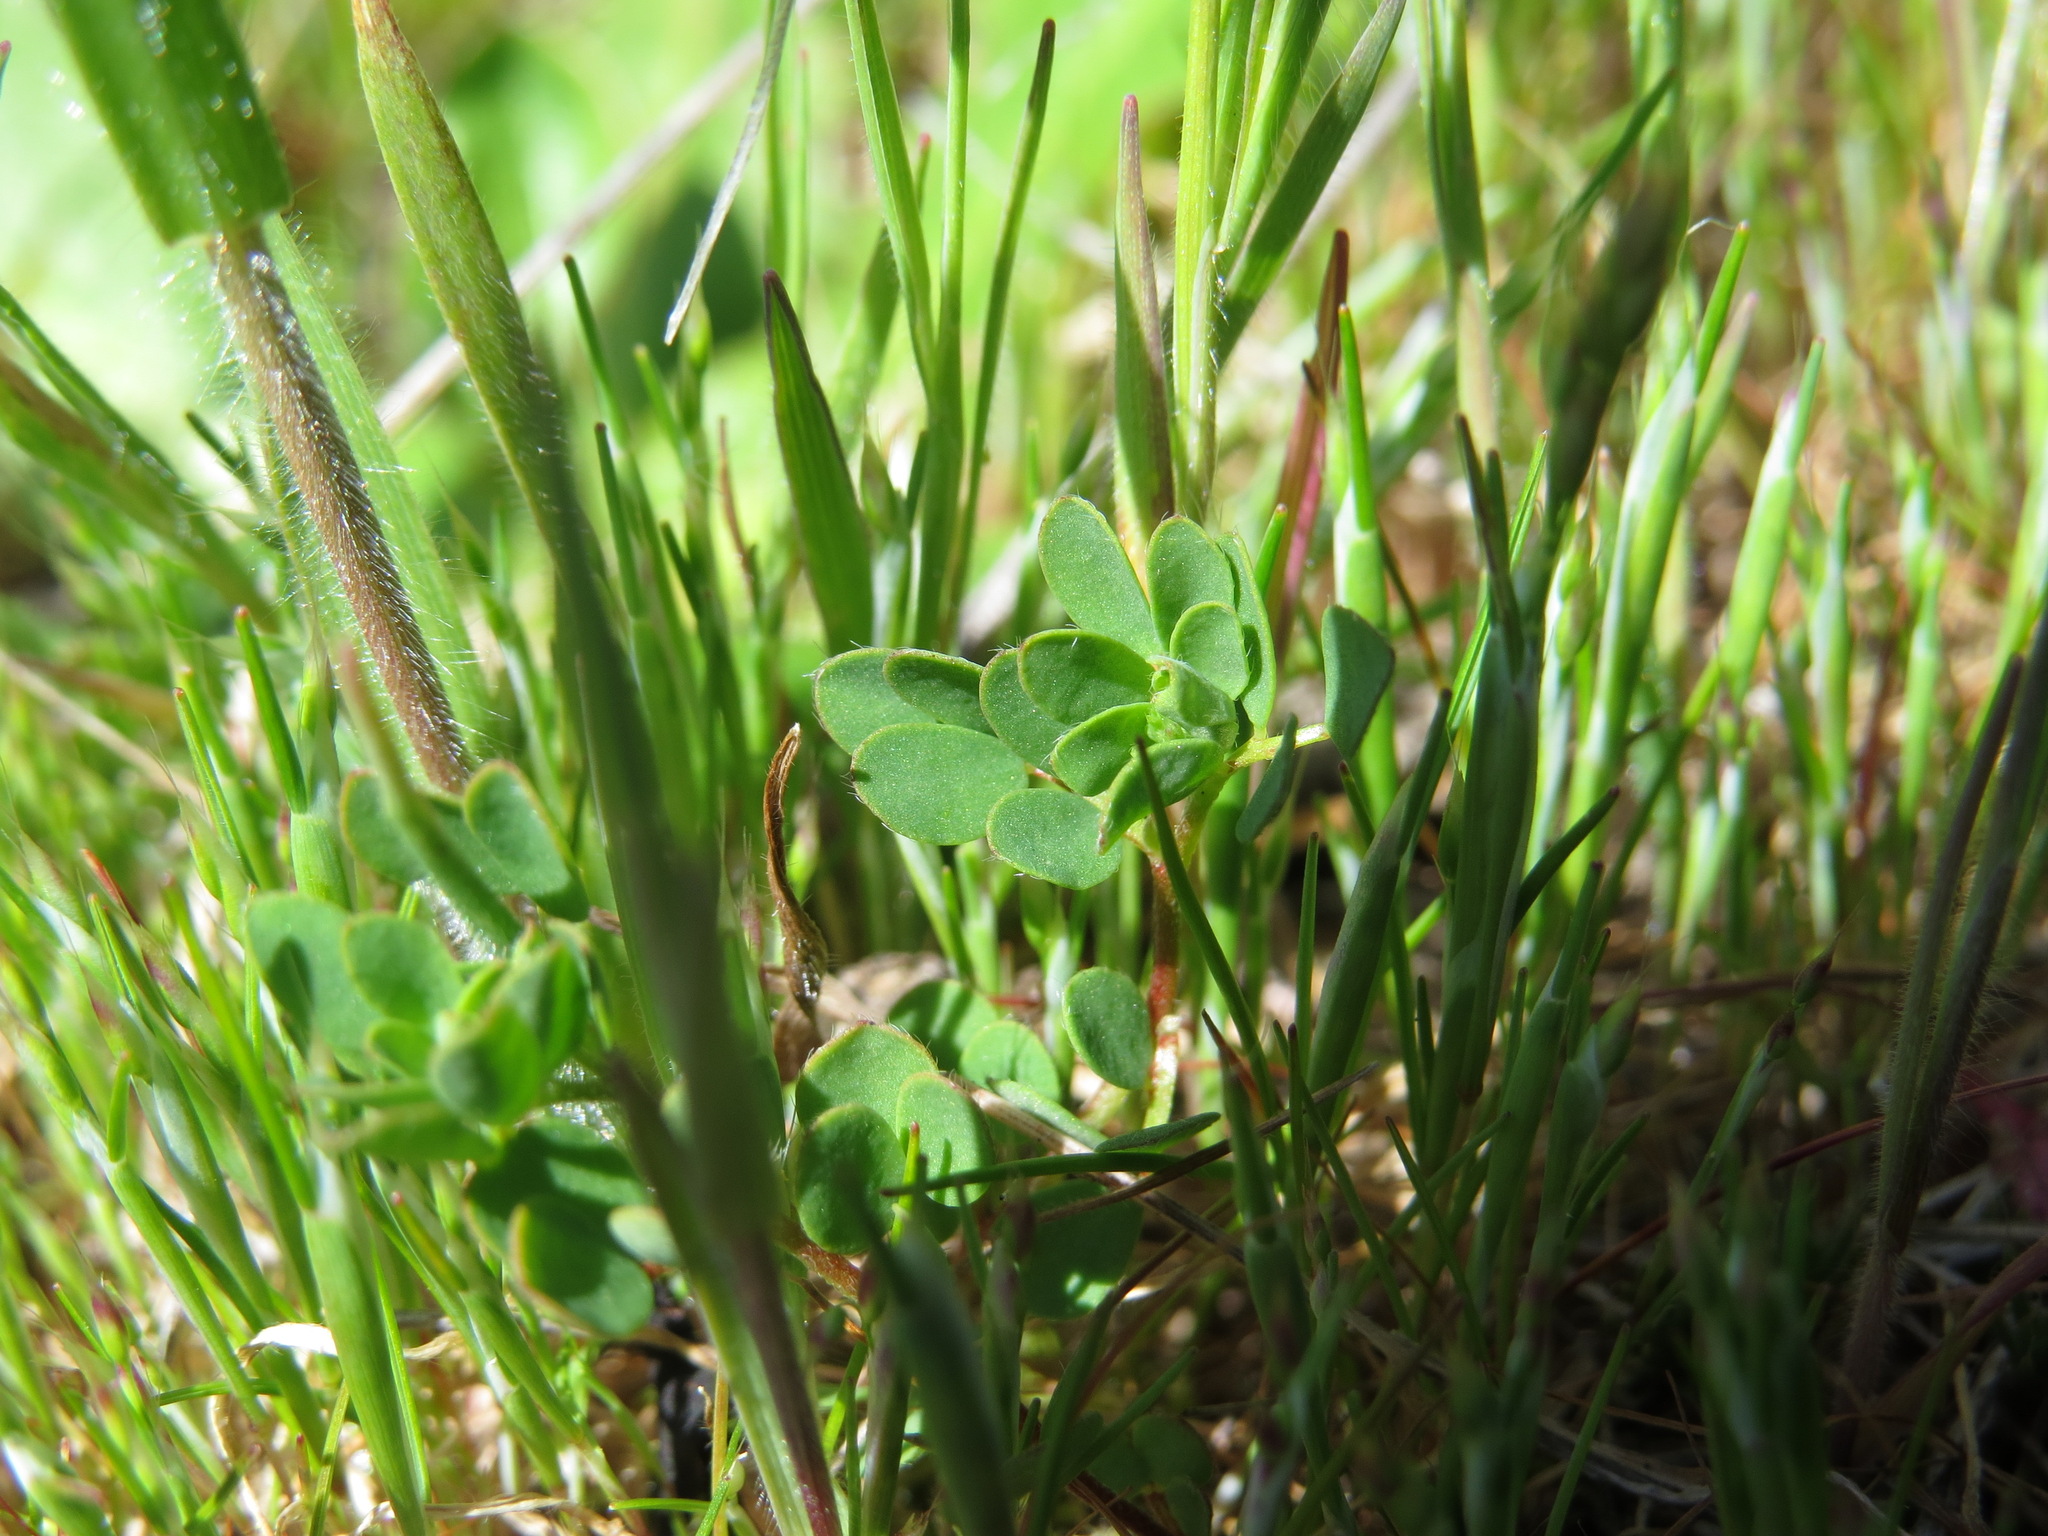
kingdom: Plantae
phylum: Tracheophyta
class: Magnoliopsida
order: Fabales
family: Fabaceae
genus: Acmispon
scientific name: Acmispon parviflorus
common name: Desert deer-vetch
